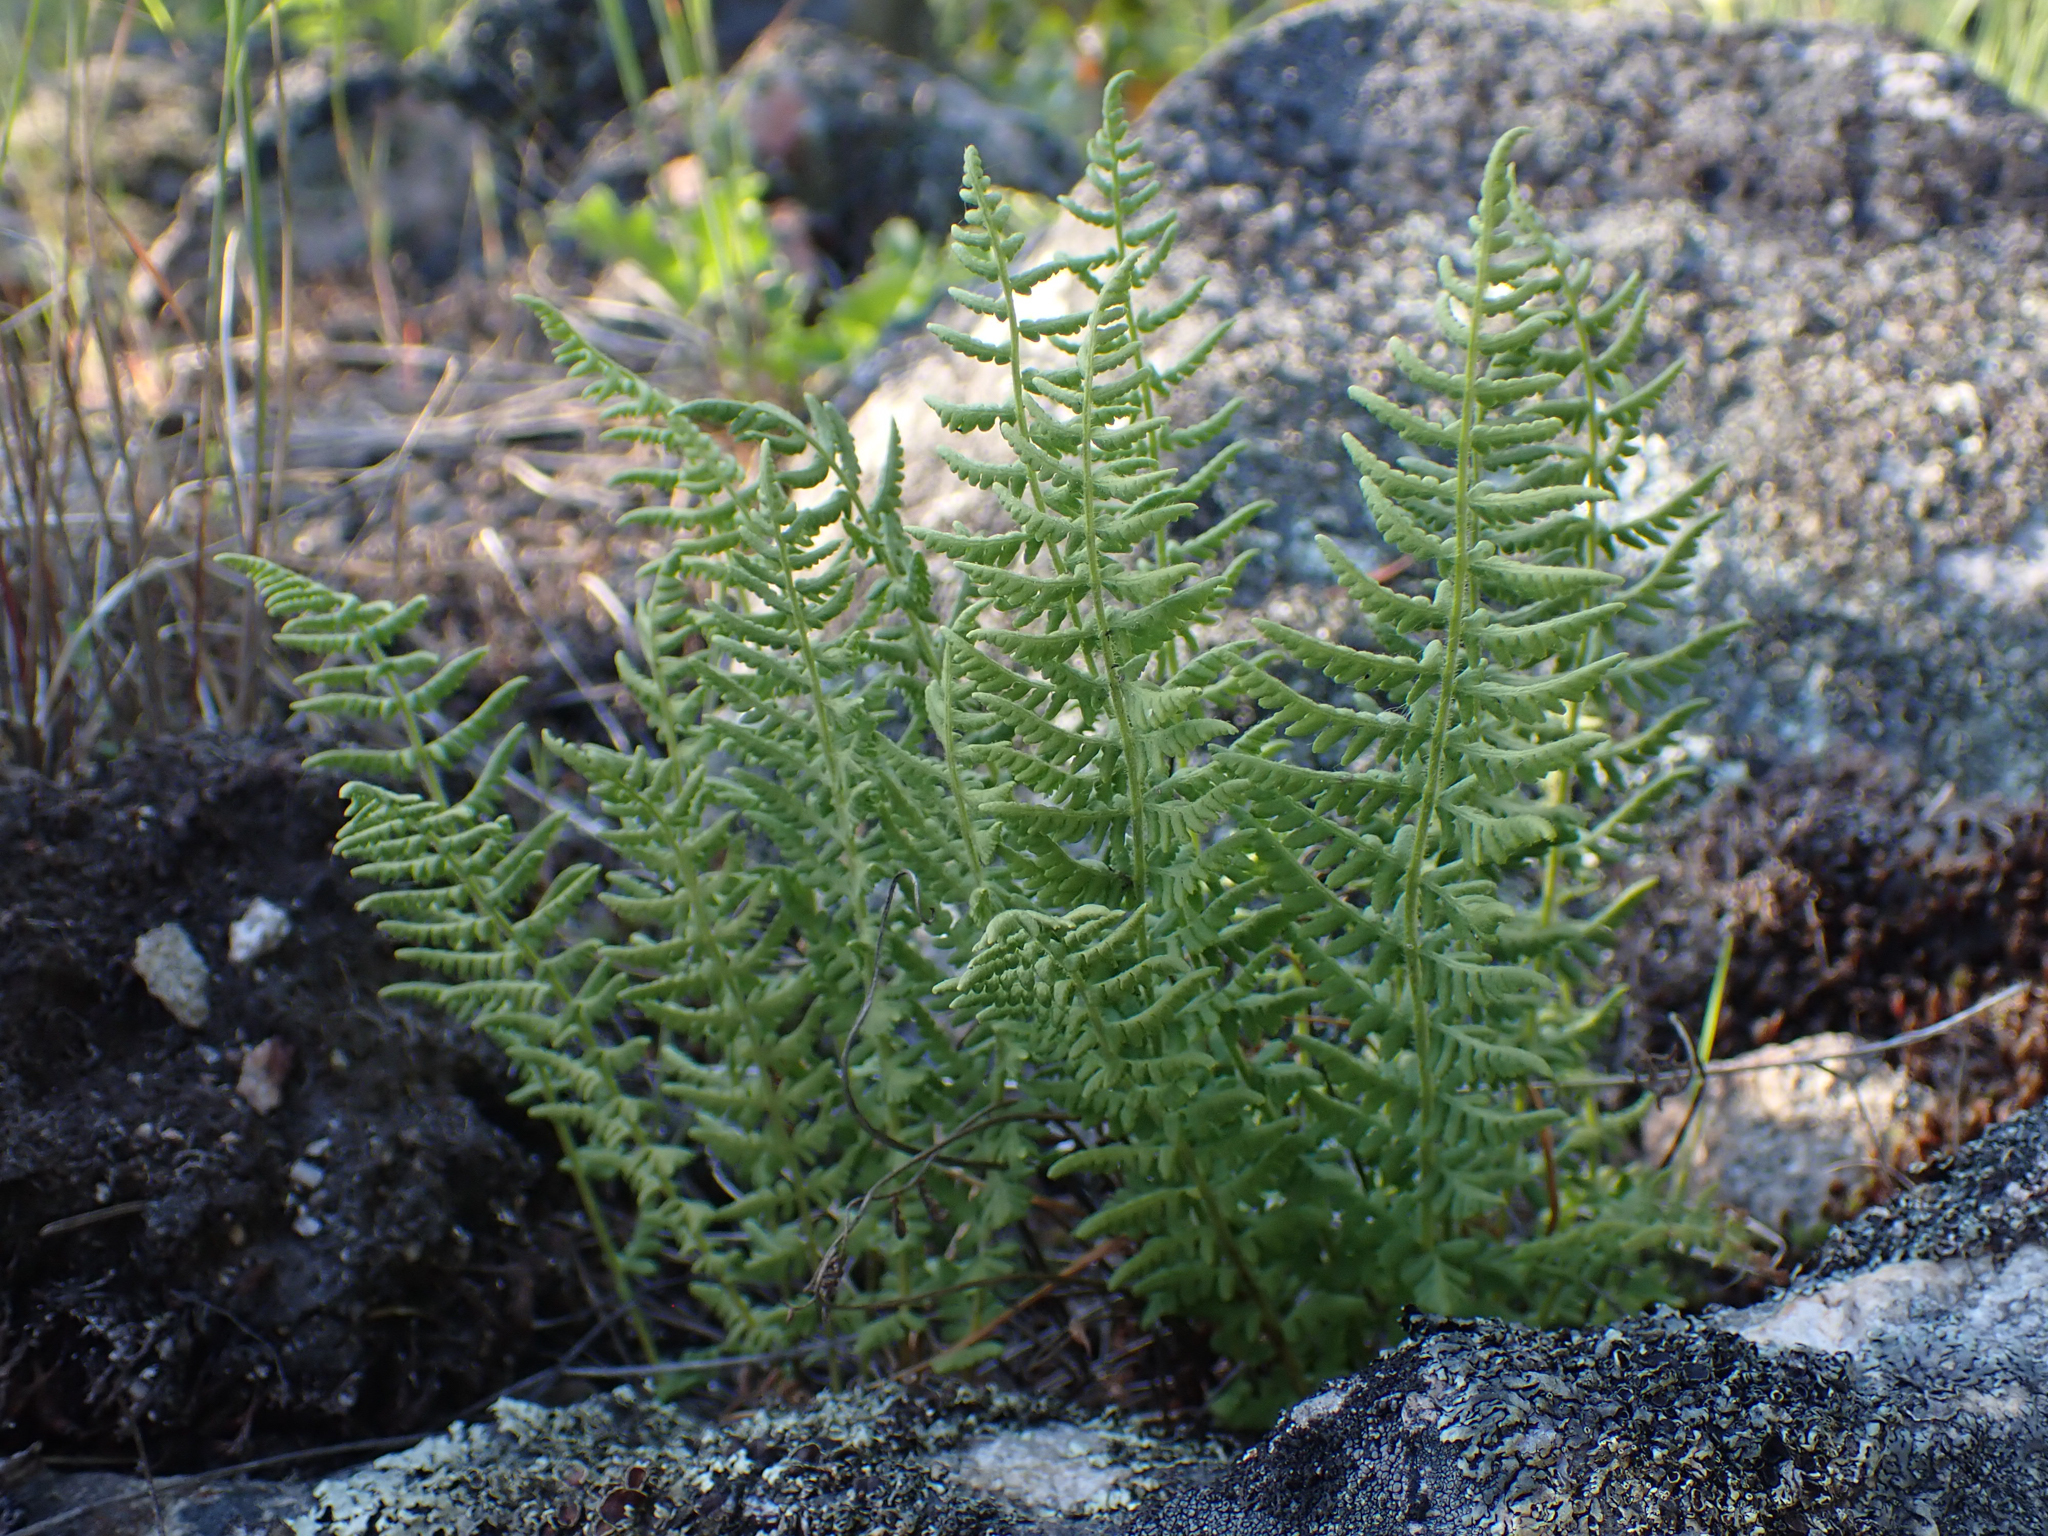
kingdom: Plantae
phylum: Tracheophyta
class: Polypodiopsida
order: Polypodiales
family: Woodsiaceae
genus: Physematium
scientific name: Physematium scopulinum
